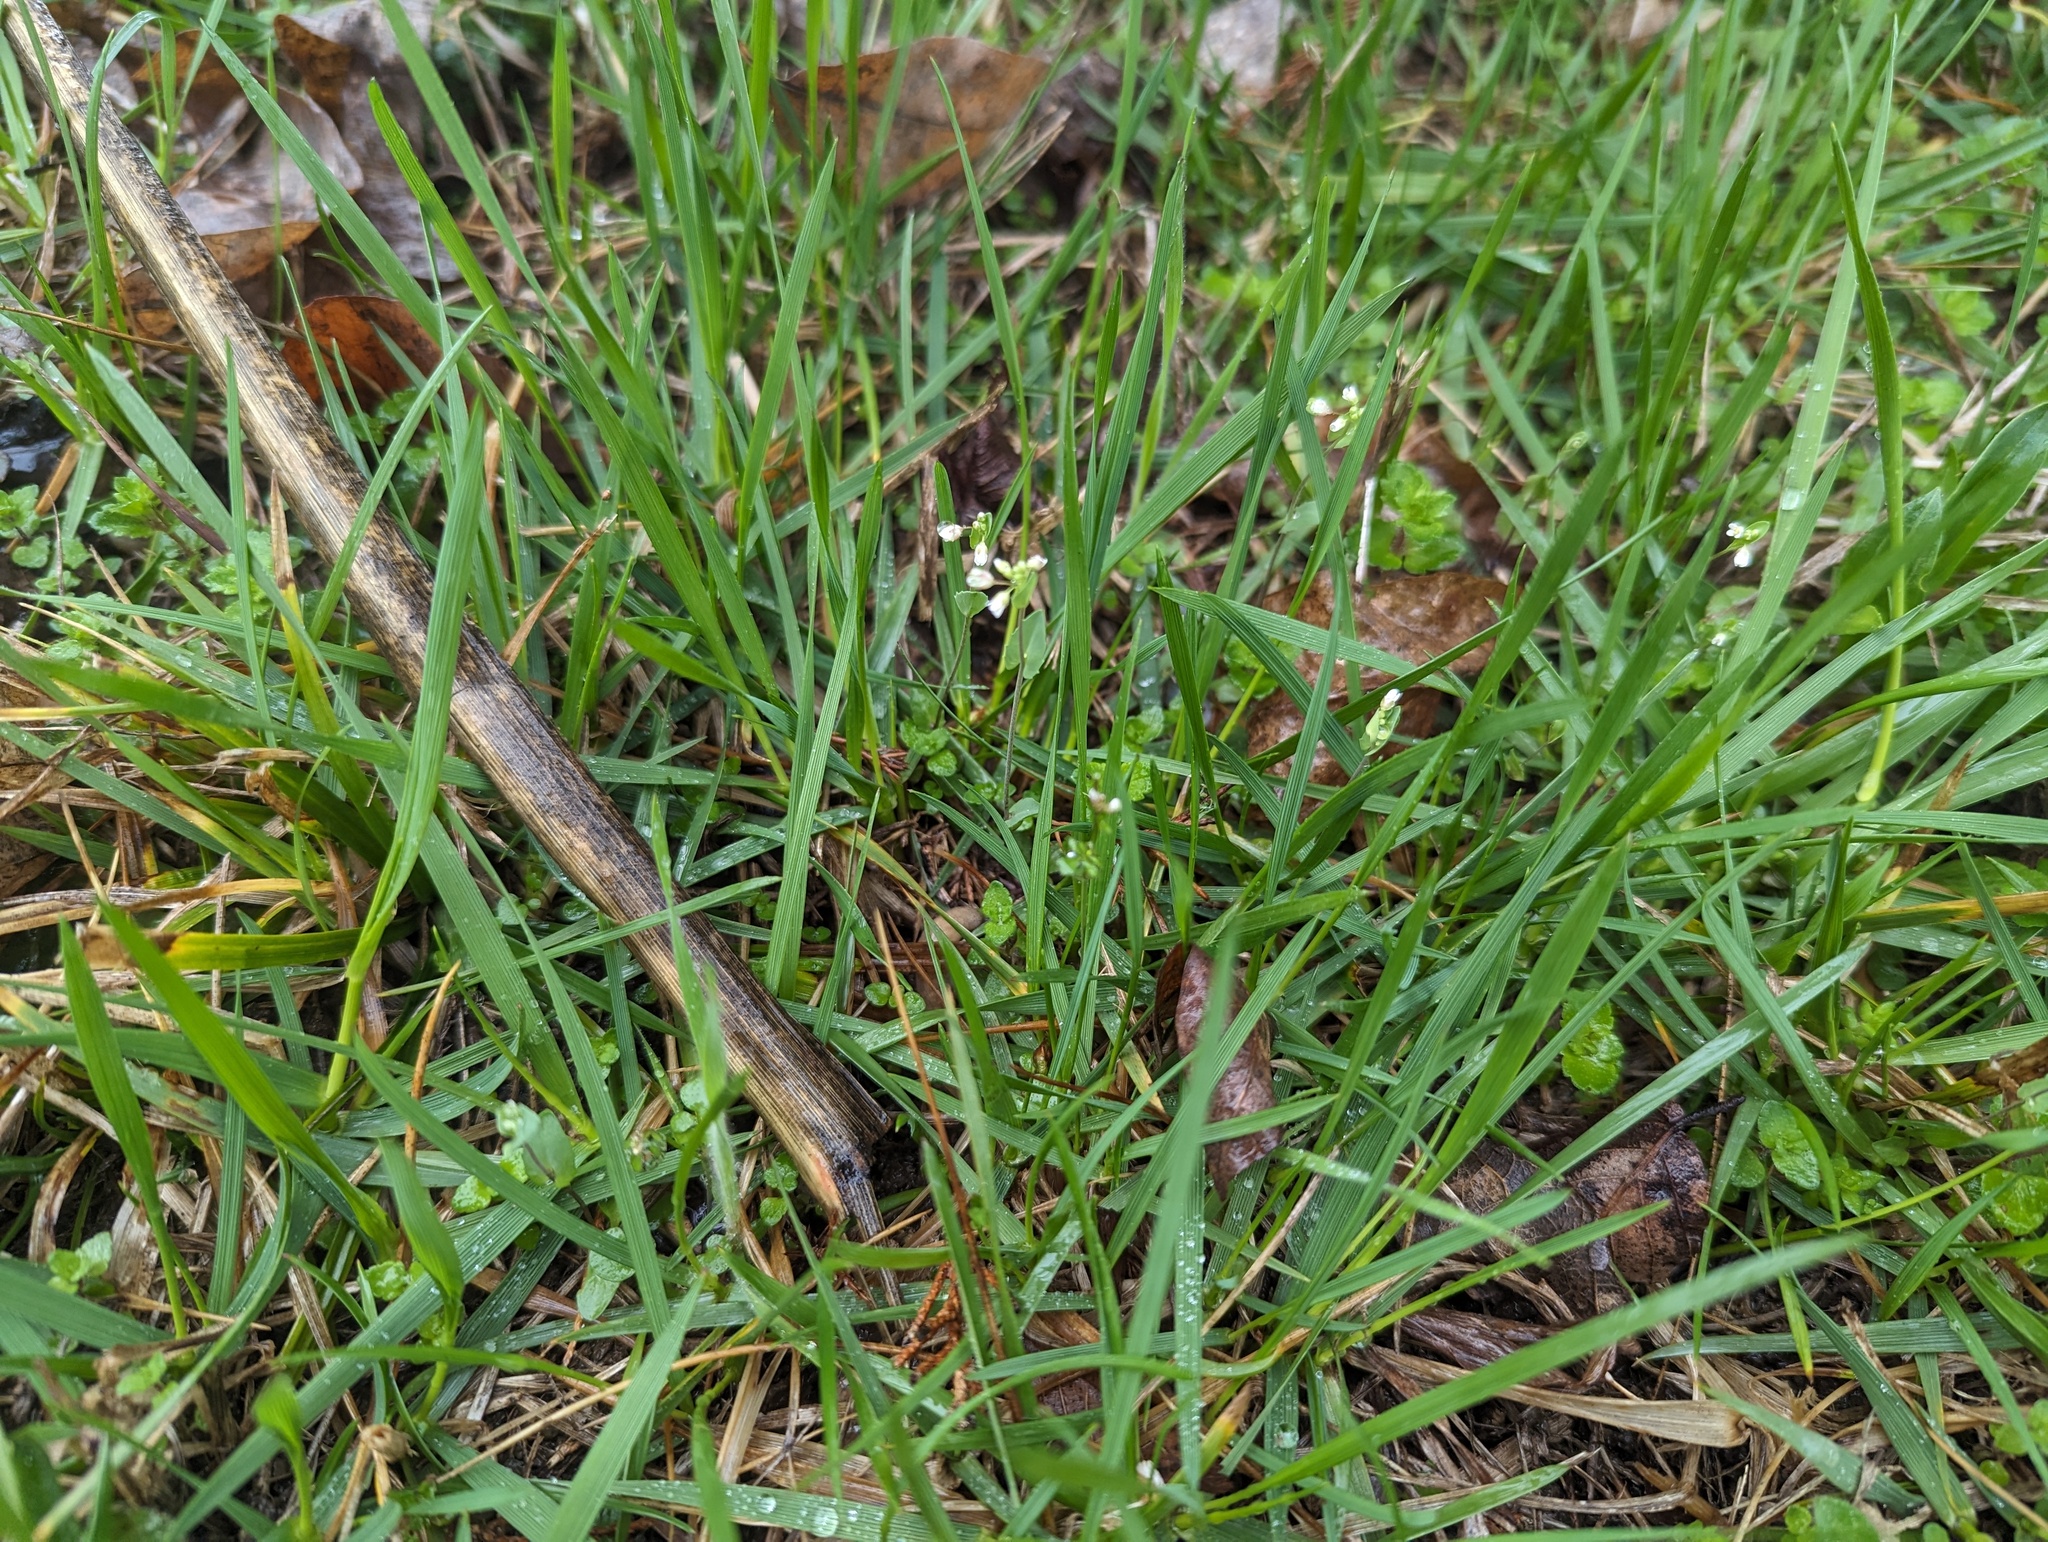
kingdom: Plantae
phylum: Tracheophyta
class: Magnoliopsida
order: Brassicales
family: Brassicaceae
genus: Noccaea
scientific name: Noccaea perfoliata
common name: Perfoliate pennycress
